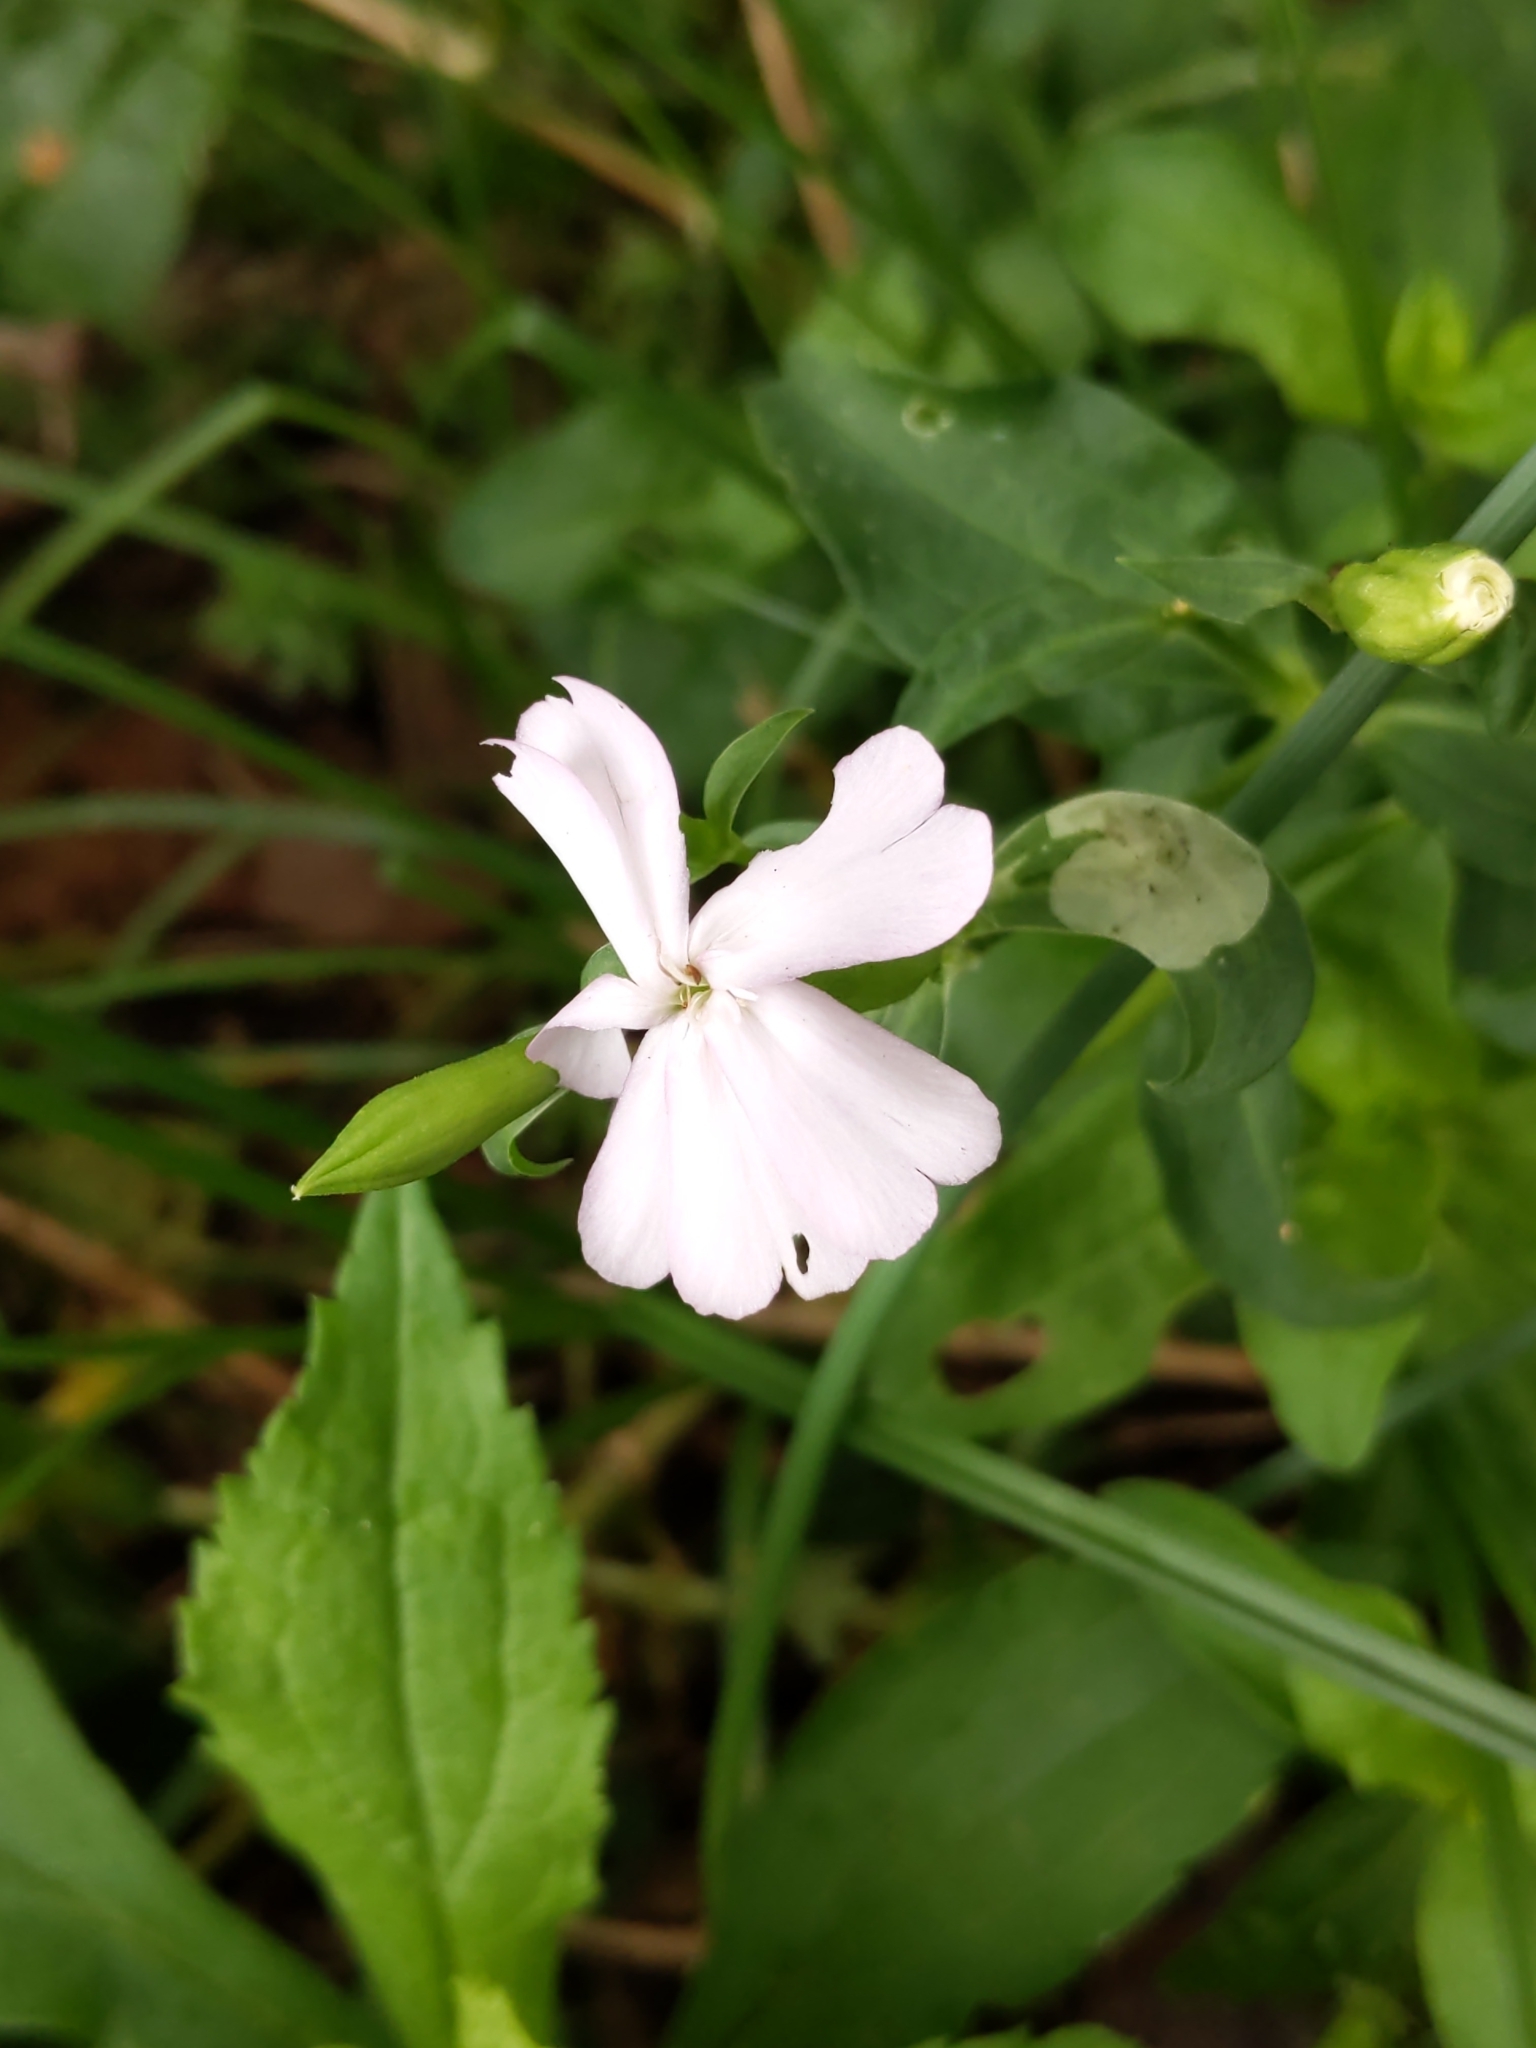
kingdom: Plantae
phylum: Tracheophyta
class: Magnoliopsida
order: Caryophyllales
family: Caryophyllaceae
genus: Saponaria
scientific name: Saponaria officinalis
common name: Soapwort
